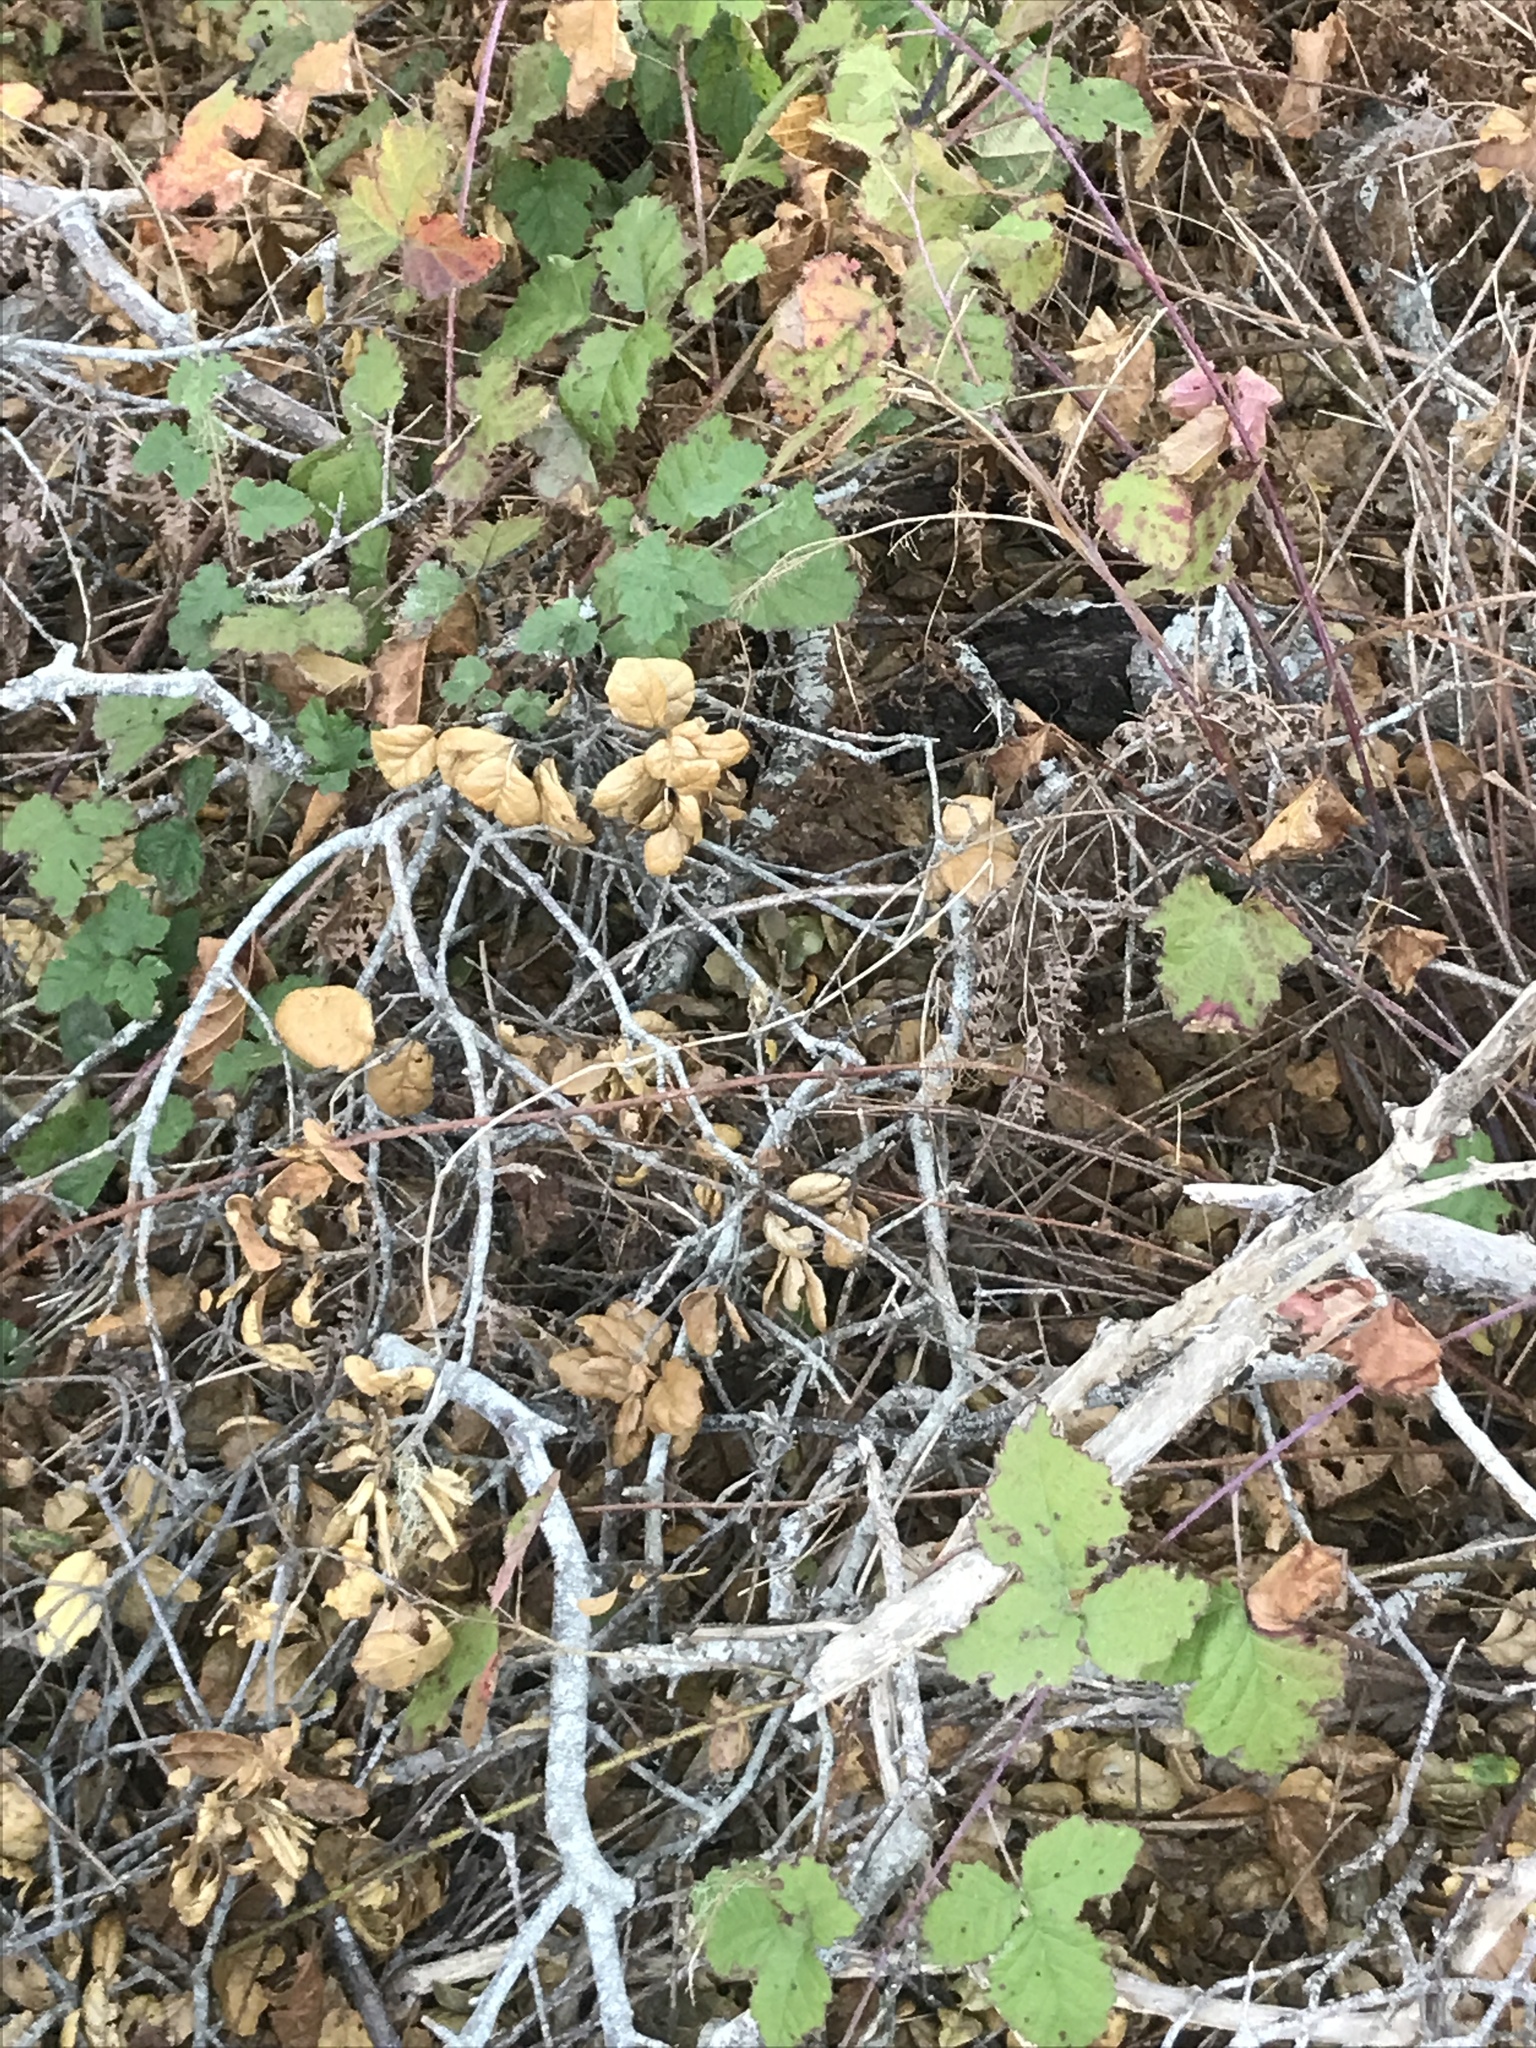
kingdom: Plantae
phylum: Tracheophyta
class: Magnoliopsida
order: Rosales
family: Rosaceae
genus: Rubus
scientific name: Rubus ursinus
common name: Pacific blackberry
